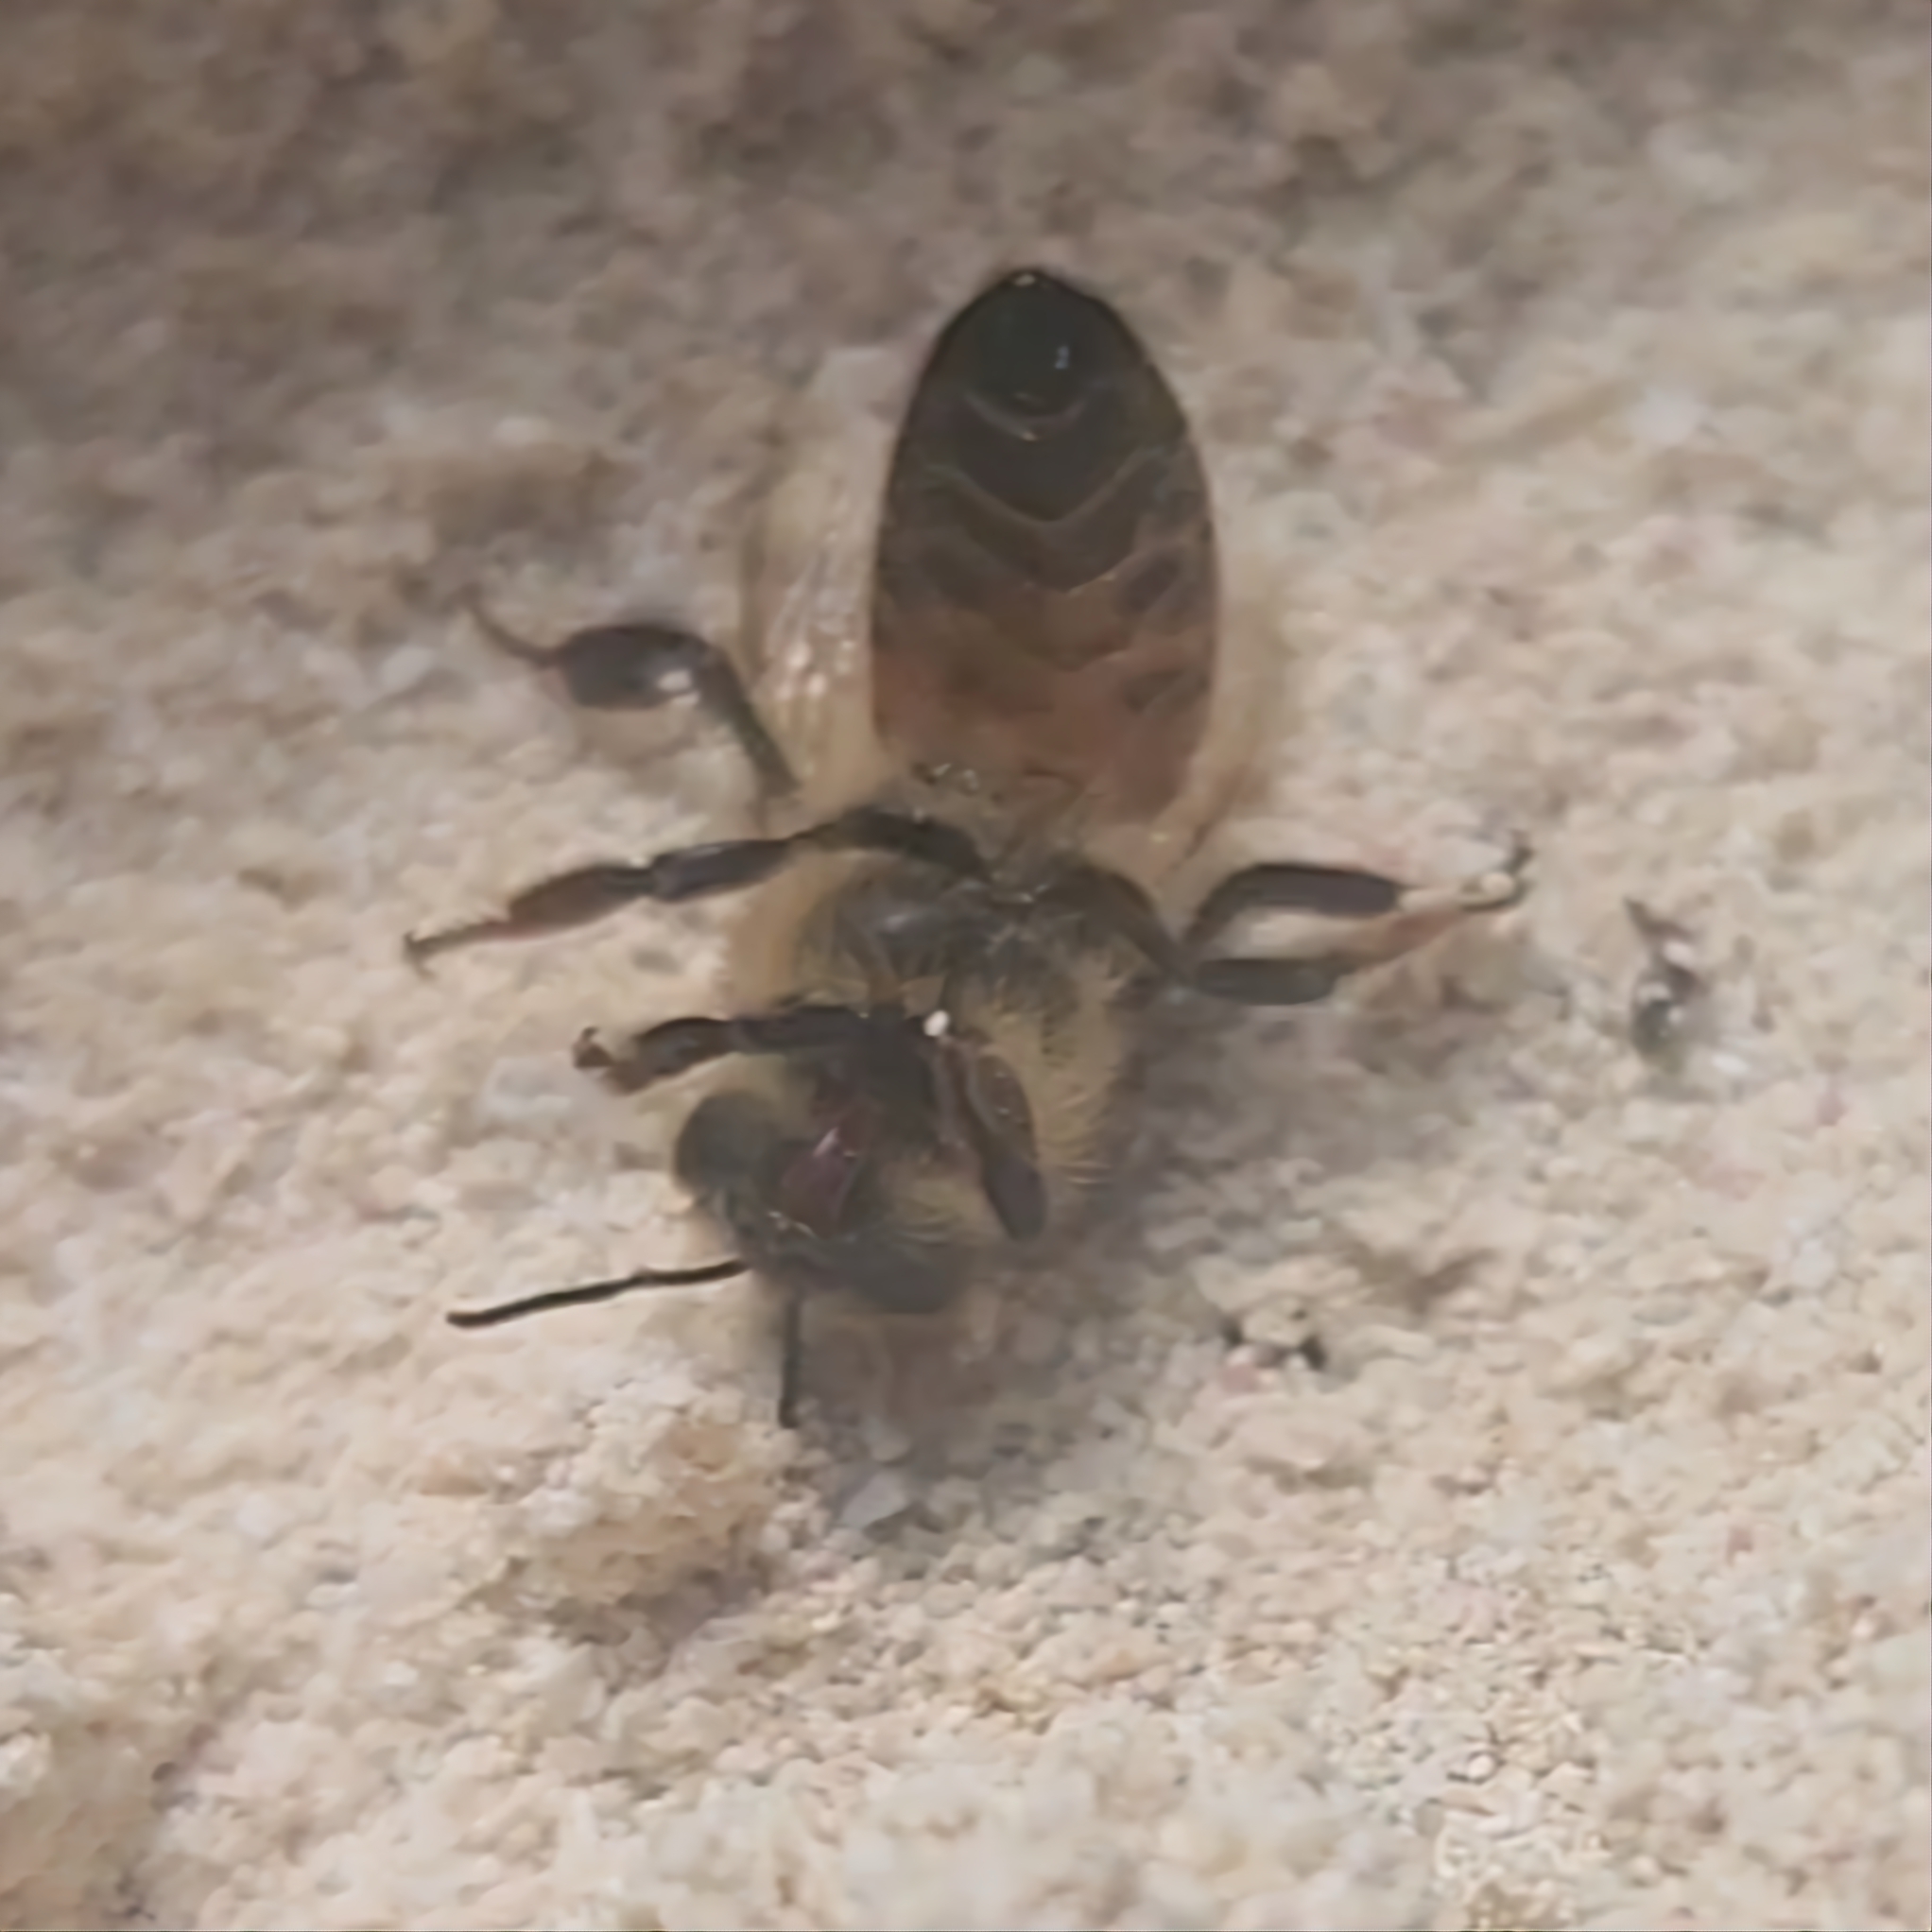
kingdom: Animalia
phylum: Arthropoda
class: Insecta
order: Hymenoptera
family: Apidae
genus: Apis
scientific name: Apis mellifera
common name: Honey bee
